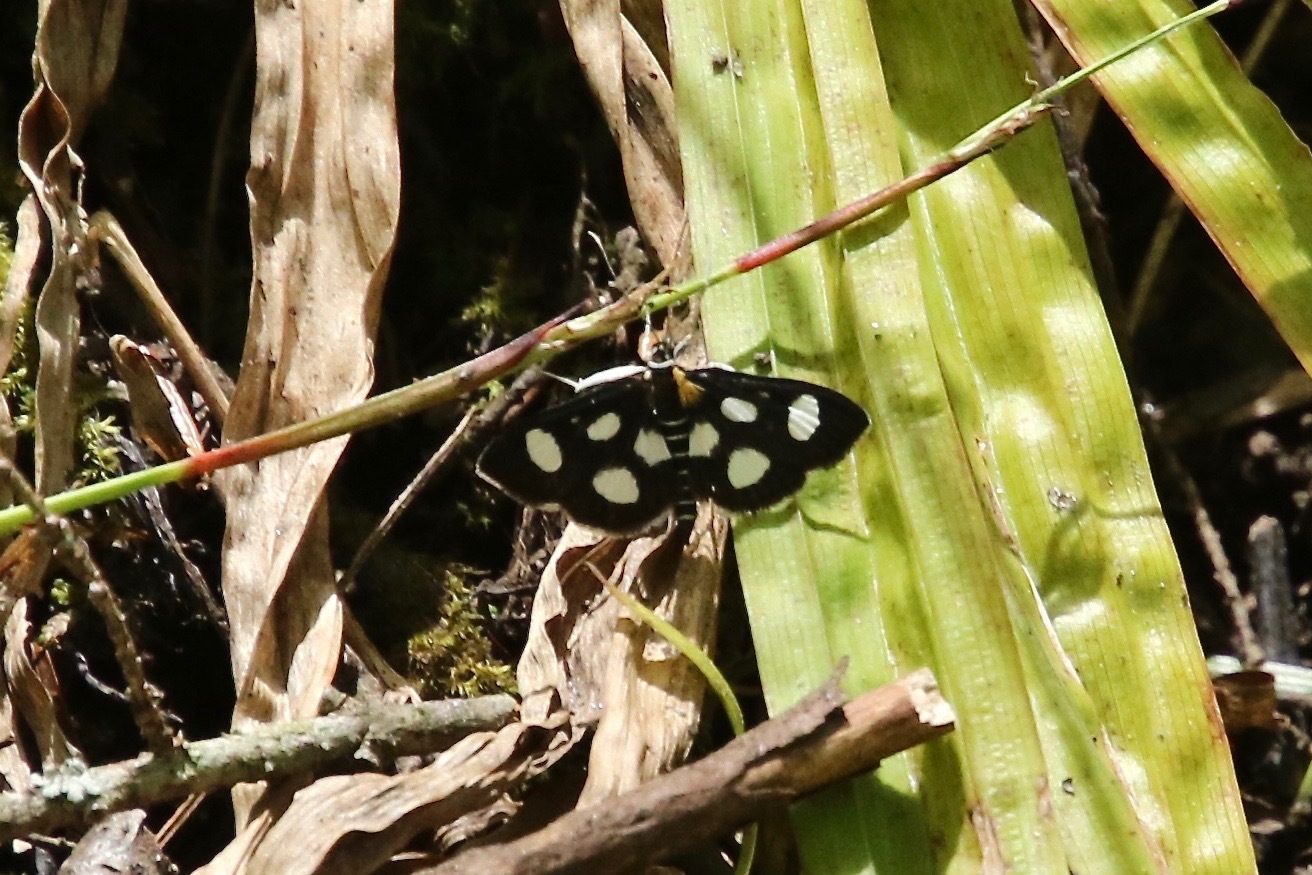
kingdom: Animalia
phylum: Arthropoda
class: Insecta
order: Lepidoptera
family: Crambidae
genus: Anania
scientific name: Anania funebris
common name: White-spotted sable moth
